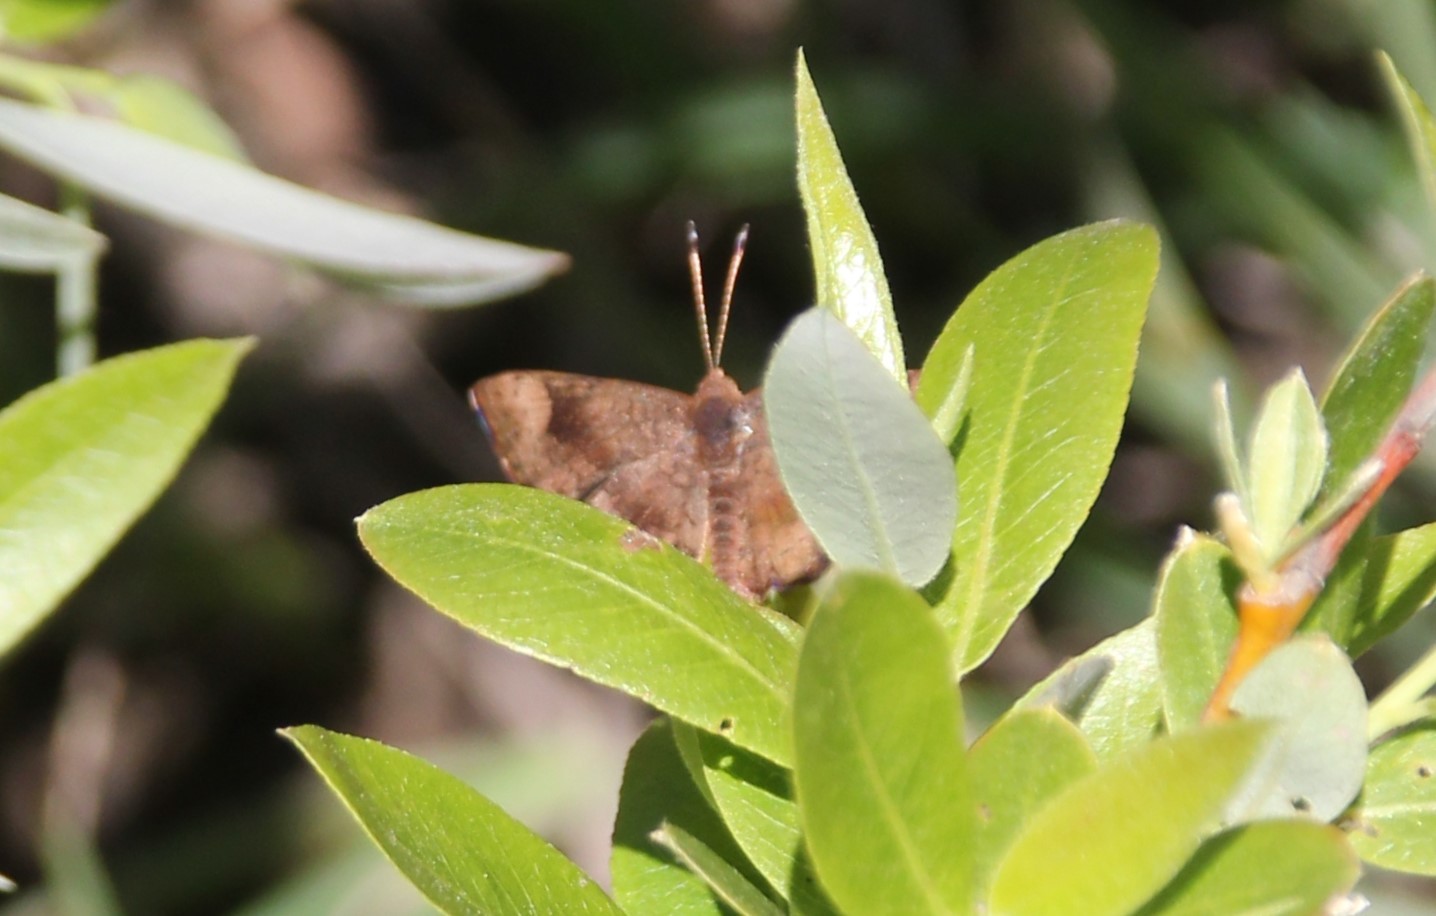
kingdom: Animalia
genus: Calephelis
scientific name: Calephelis nemesis
